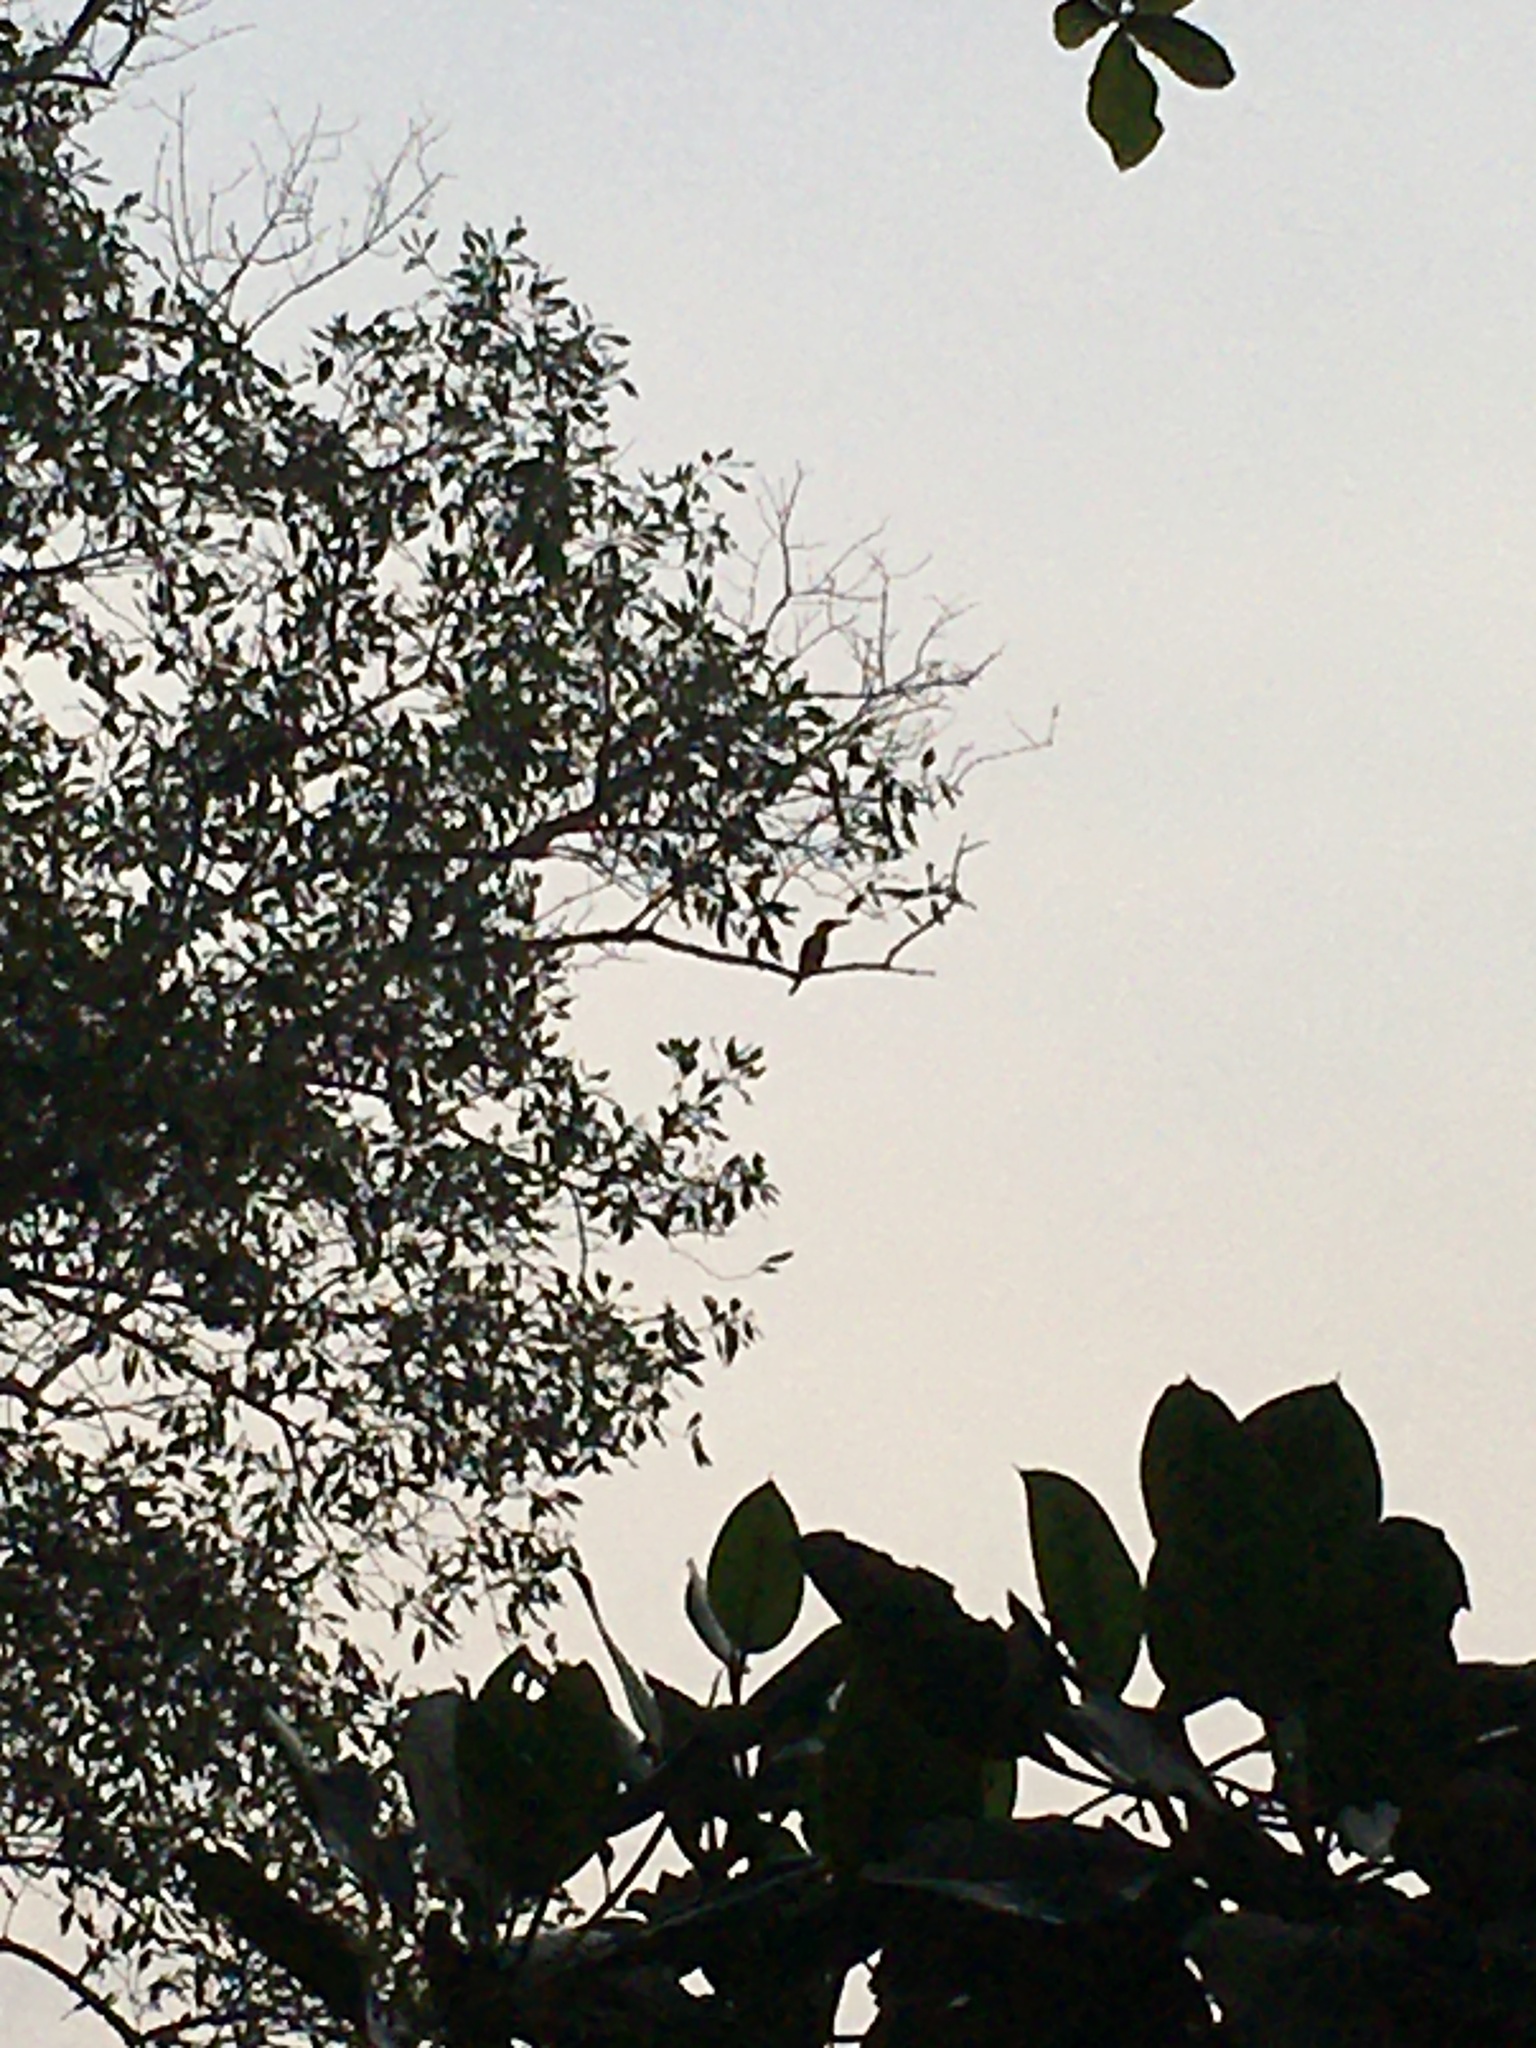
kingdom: Animalia
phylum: Chordata
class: Aves
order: Coraciiformes
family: Alcedinidae
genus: Pelargopsis
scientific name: Pelargopsis capensis
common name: Stork-billed kingfisher
